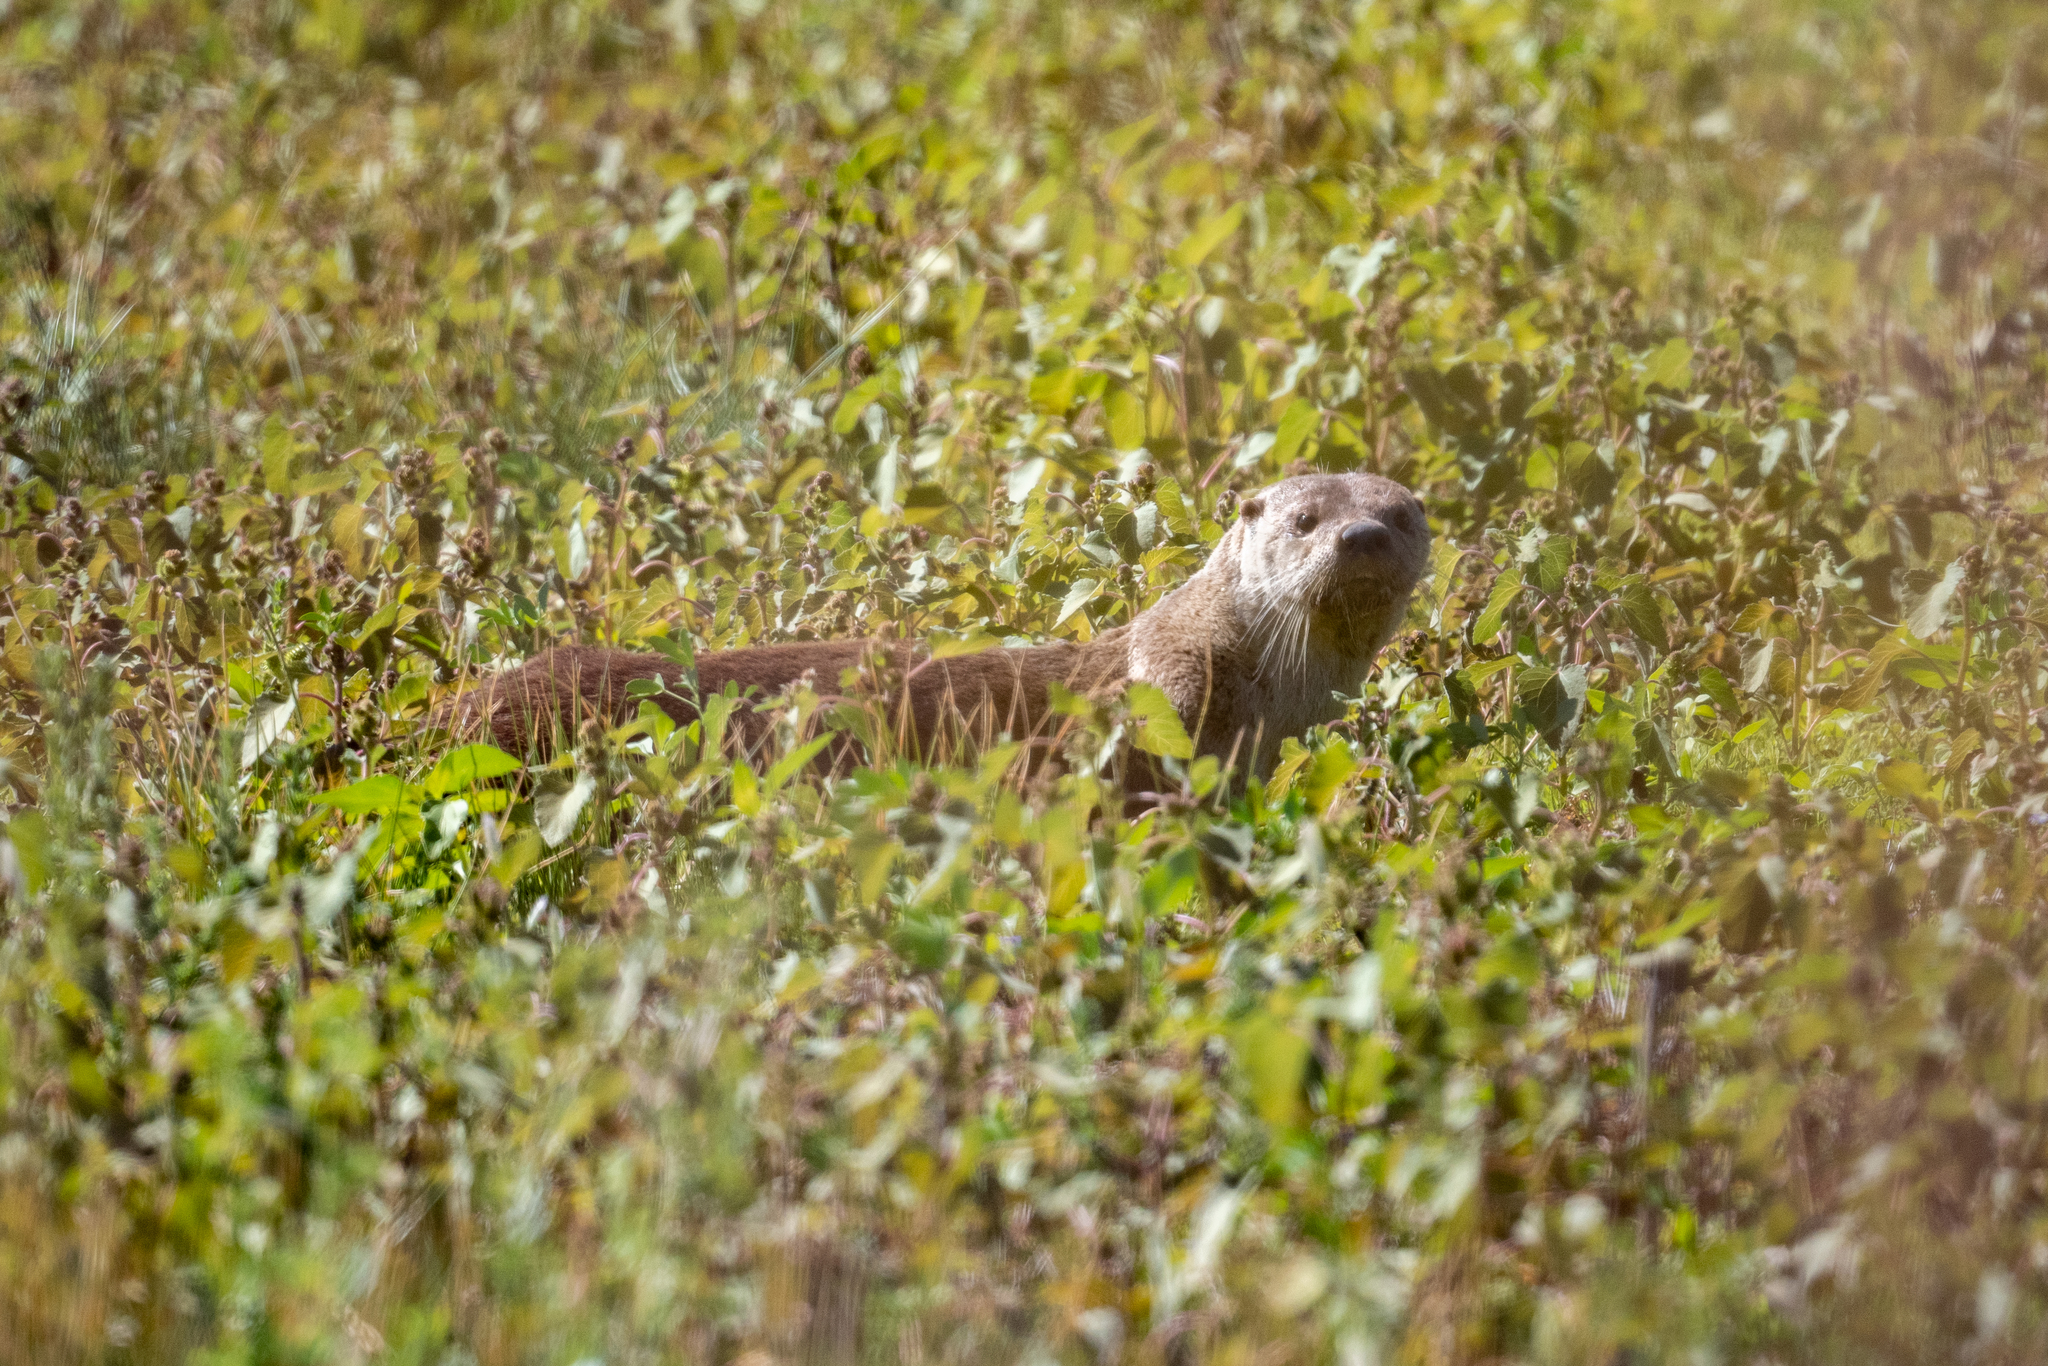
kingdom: Animalia
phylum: Chordata
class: Mammalia
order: Carnivora
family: Mustelidae
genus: Lontra
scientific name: Lontra canadensis
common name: North american river otter
